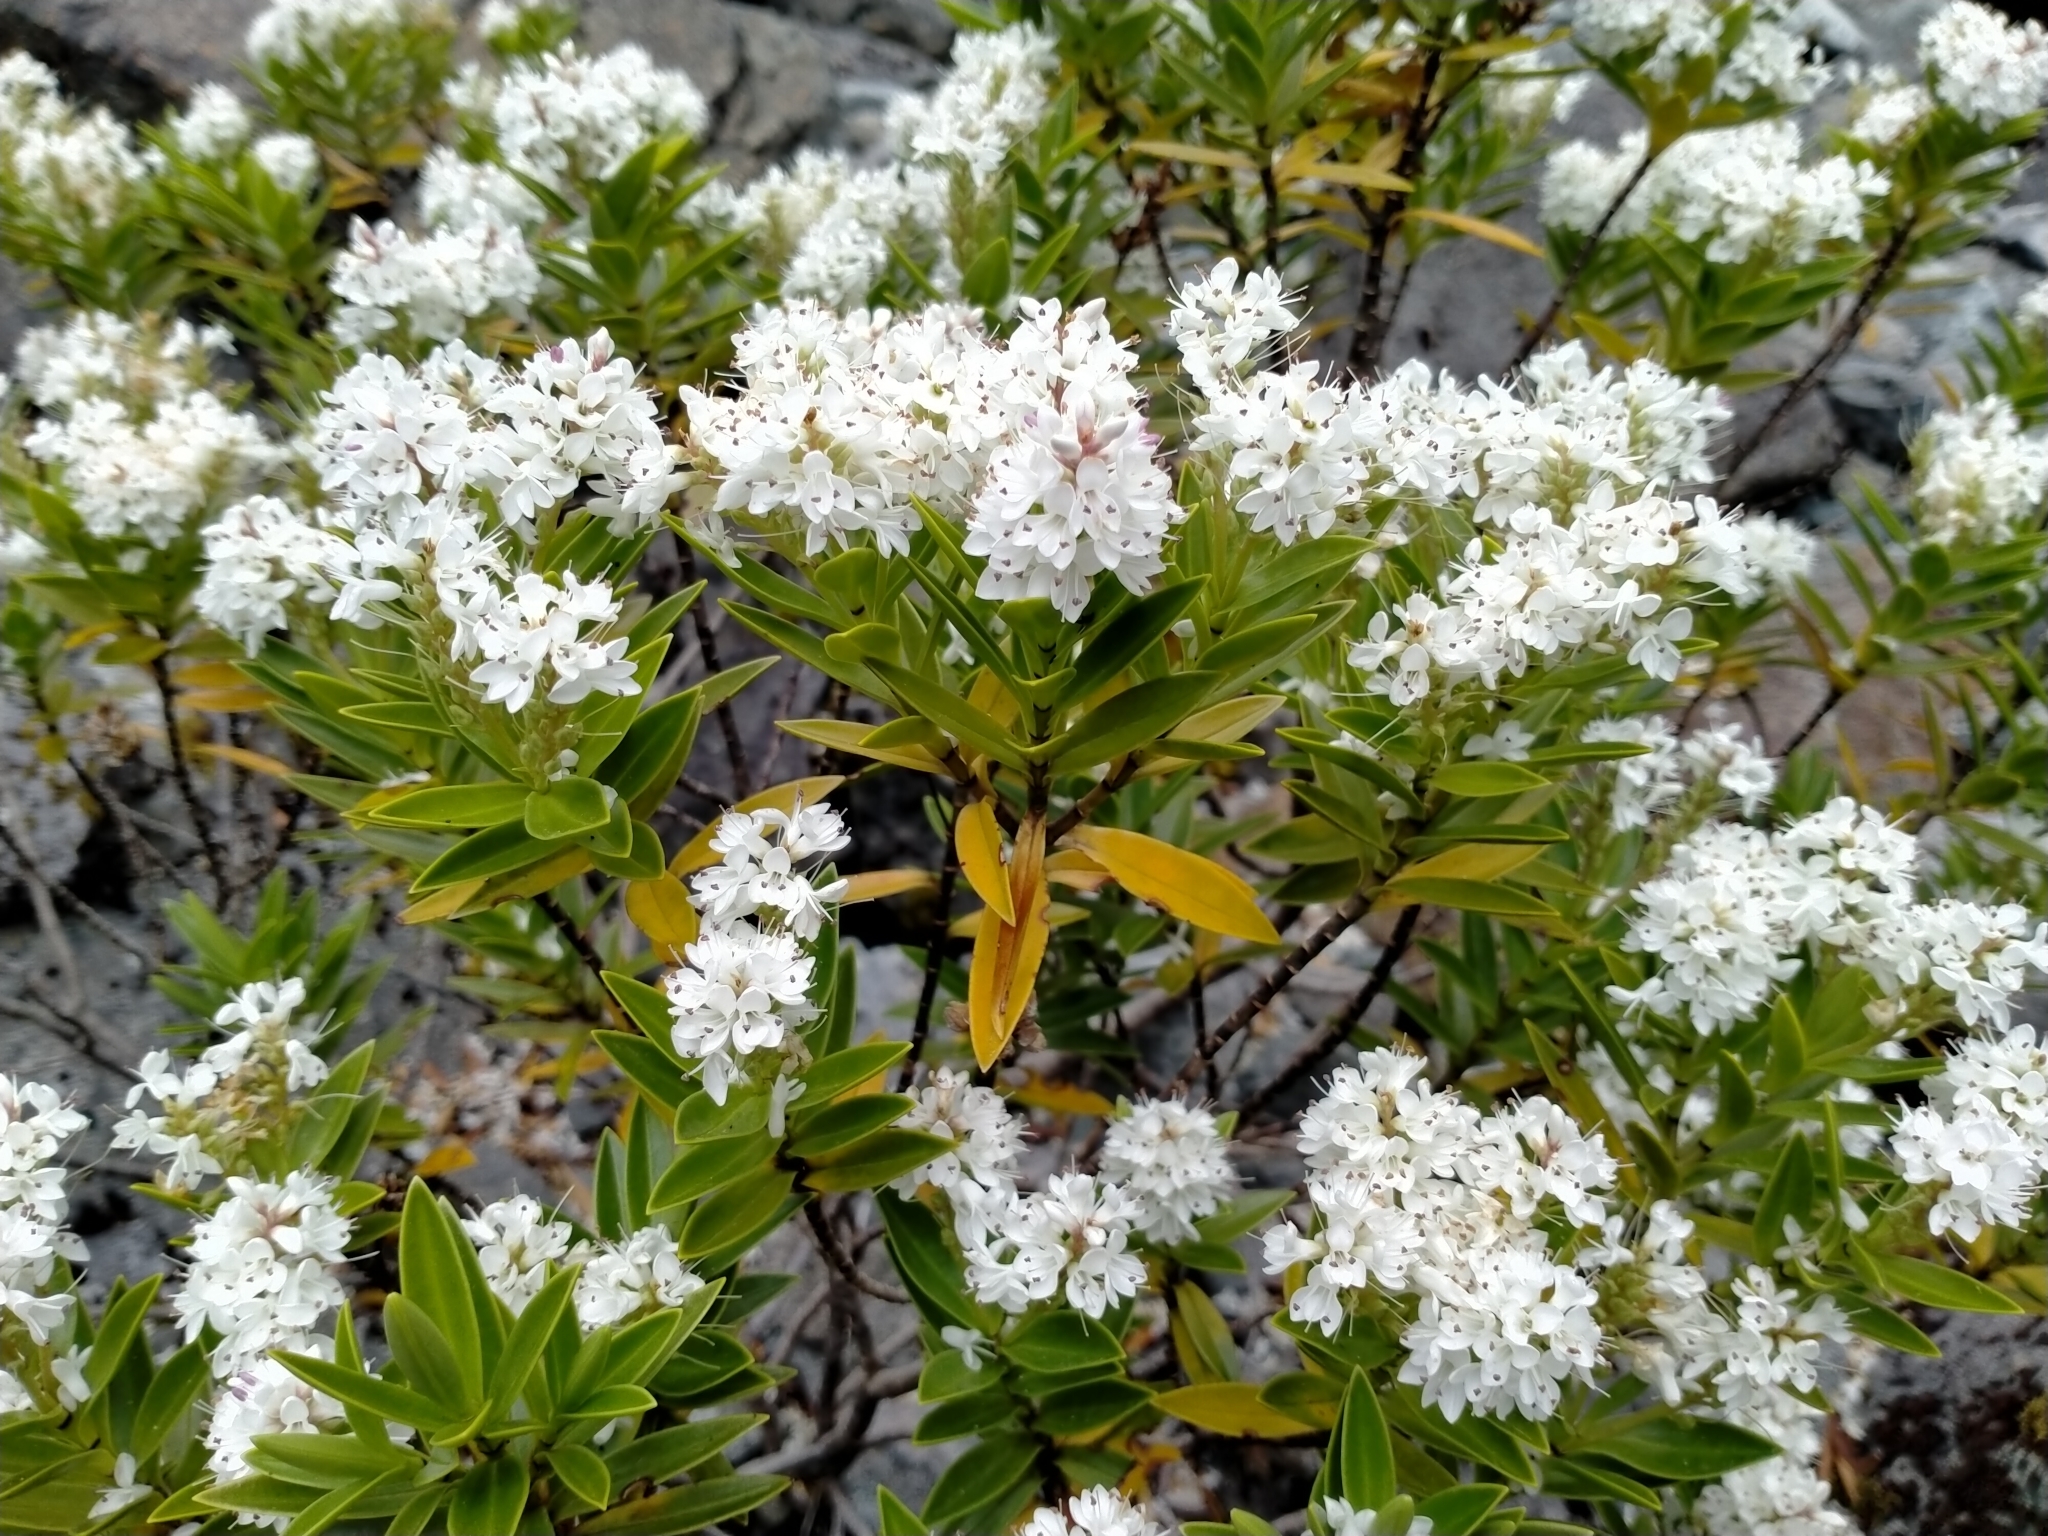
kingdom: Plantae
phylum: Tracheophyta
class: Magnoliopsida
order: Lamiales
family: Plantaginaceae
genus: Veronica
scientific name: Veronica subalpina
